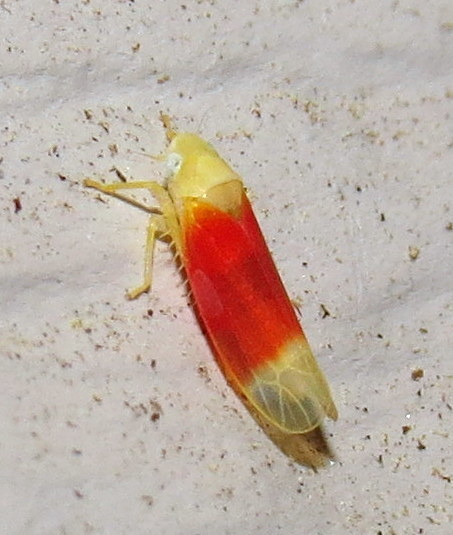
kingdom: Animalia
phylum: Arthropoda
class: Insecta
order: Hemiptera
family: Cicadellidae
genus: Ossiannilssonola
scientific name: Ossiannilssonola tunicarubra
